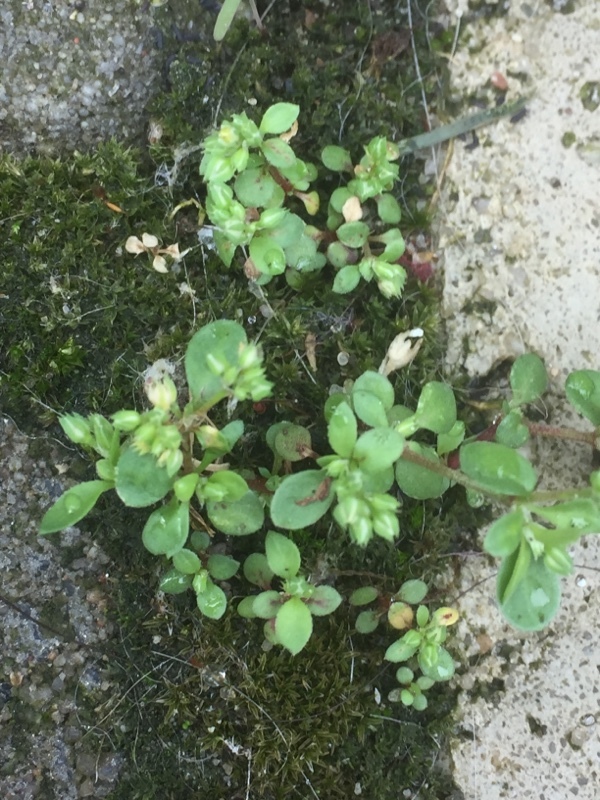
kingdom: Plantae
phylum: Tracheophyta
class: Magnoliopsida
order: Caryophyllales
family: Caryophyllaceae
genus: Polycarpon
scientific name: Polycarpon tetraphyllum
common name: Four-leaved all-seed
